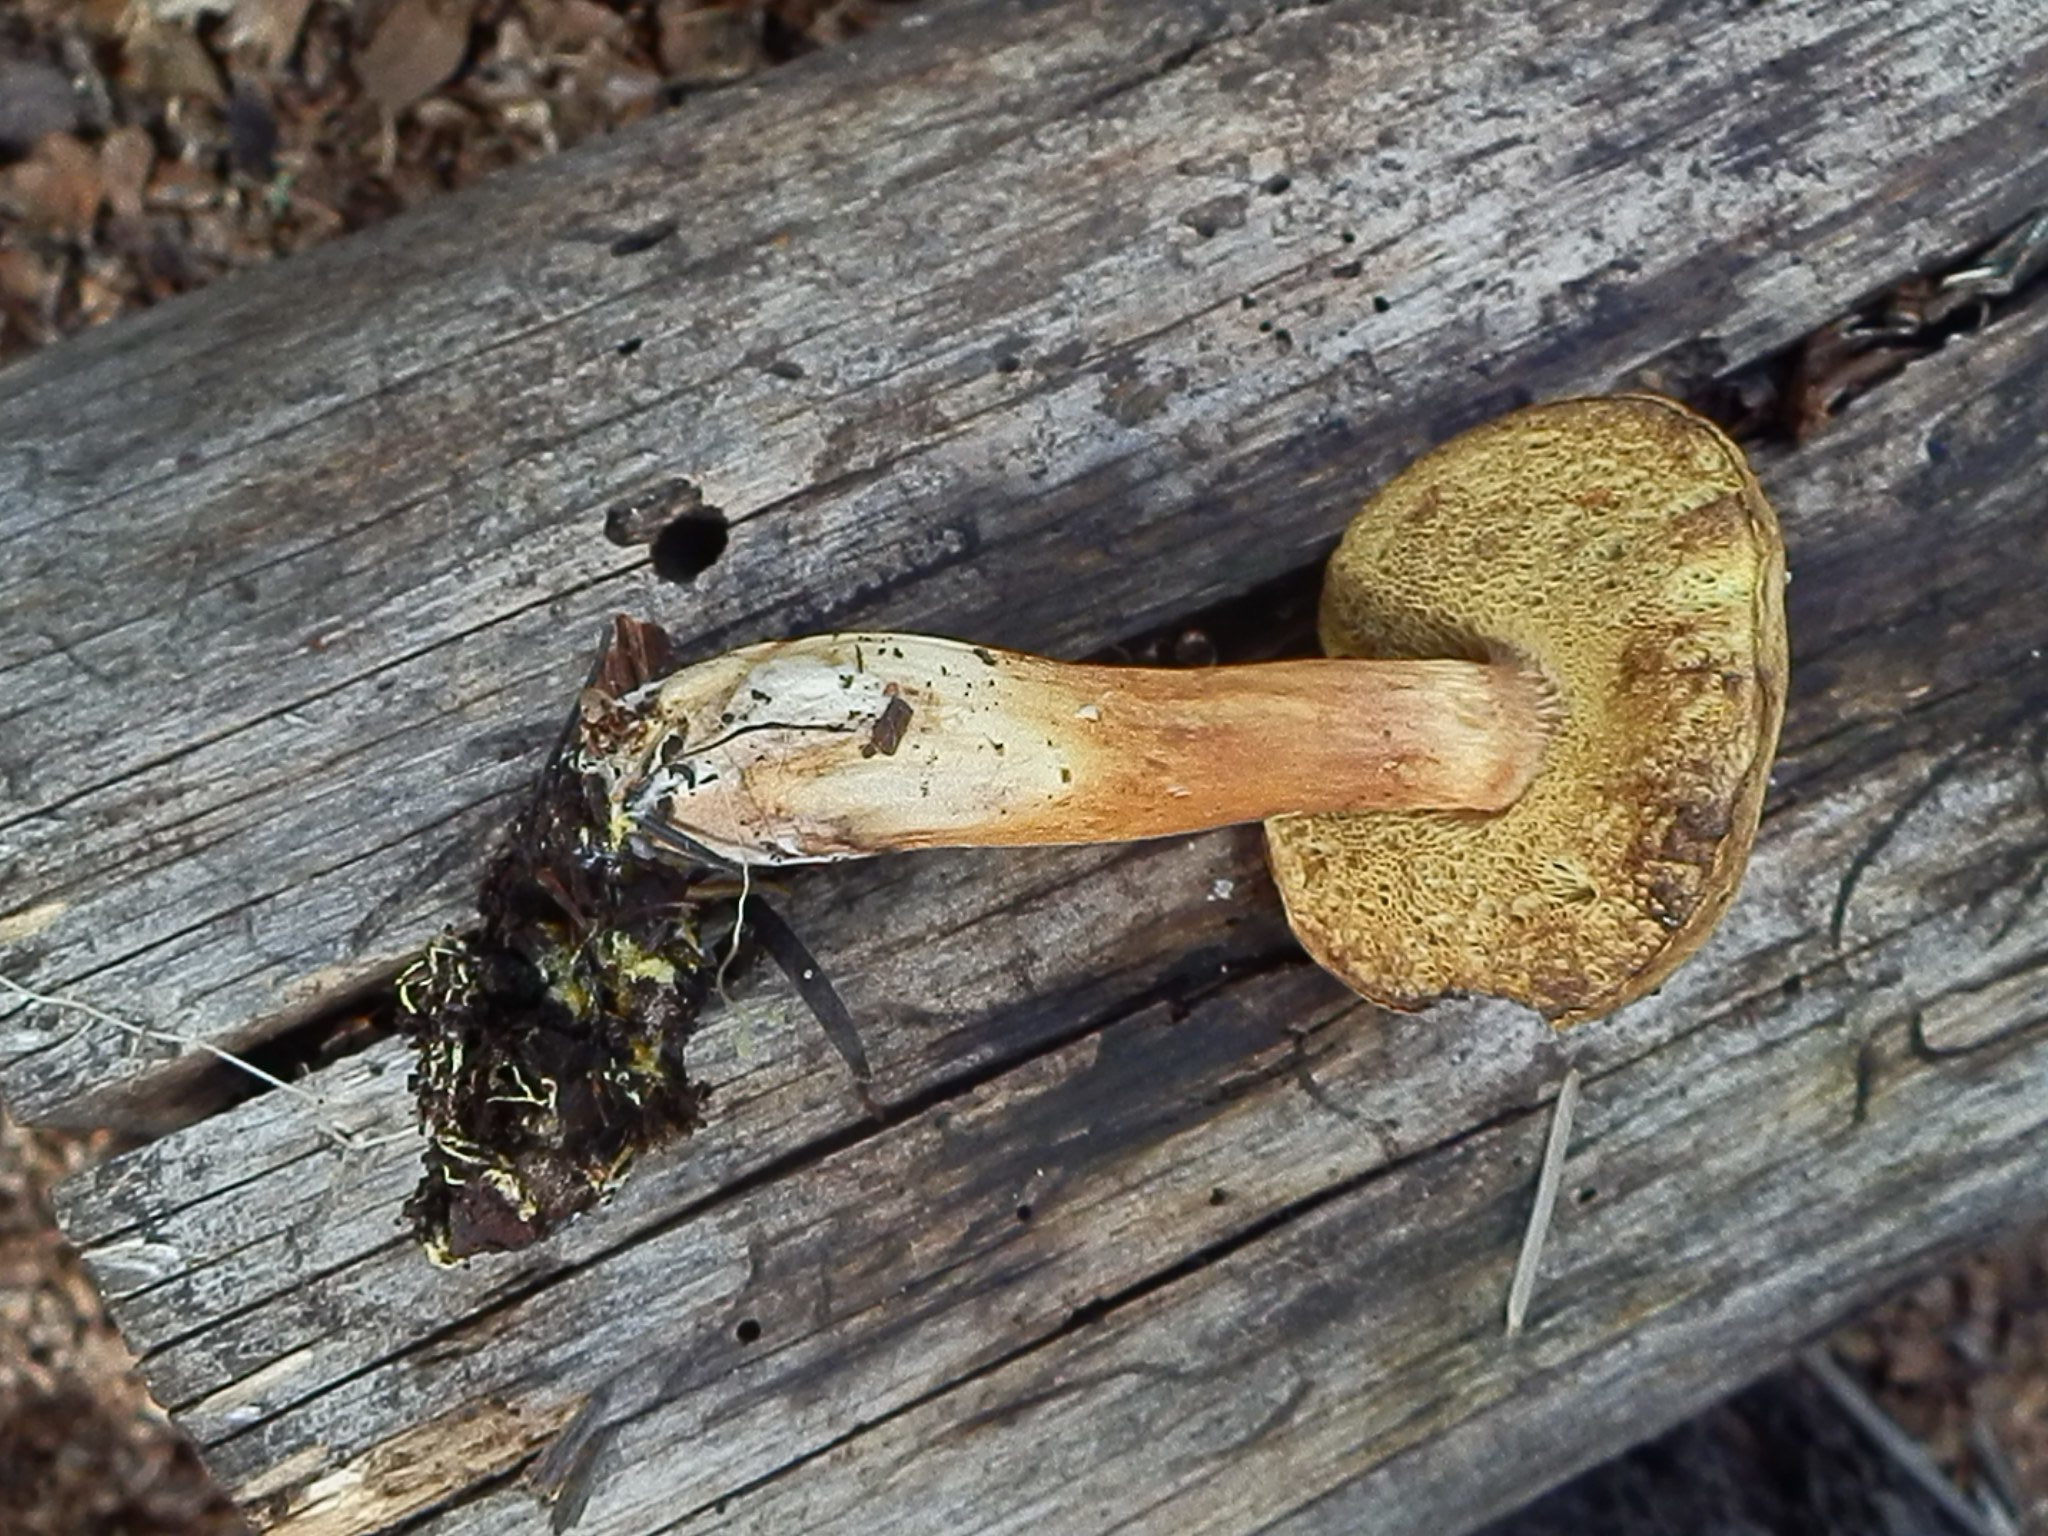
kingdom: Fungi
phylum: Basidiomycota
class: Agaricomycetes
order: Boletales
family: Boletaceae
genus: Xerocomus
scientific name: Xerocomus ferrugineus
